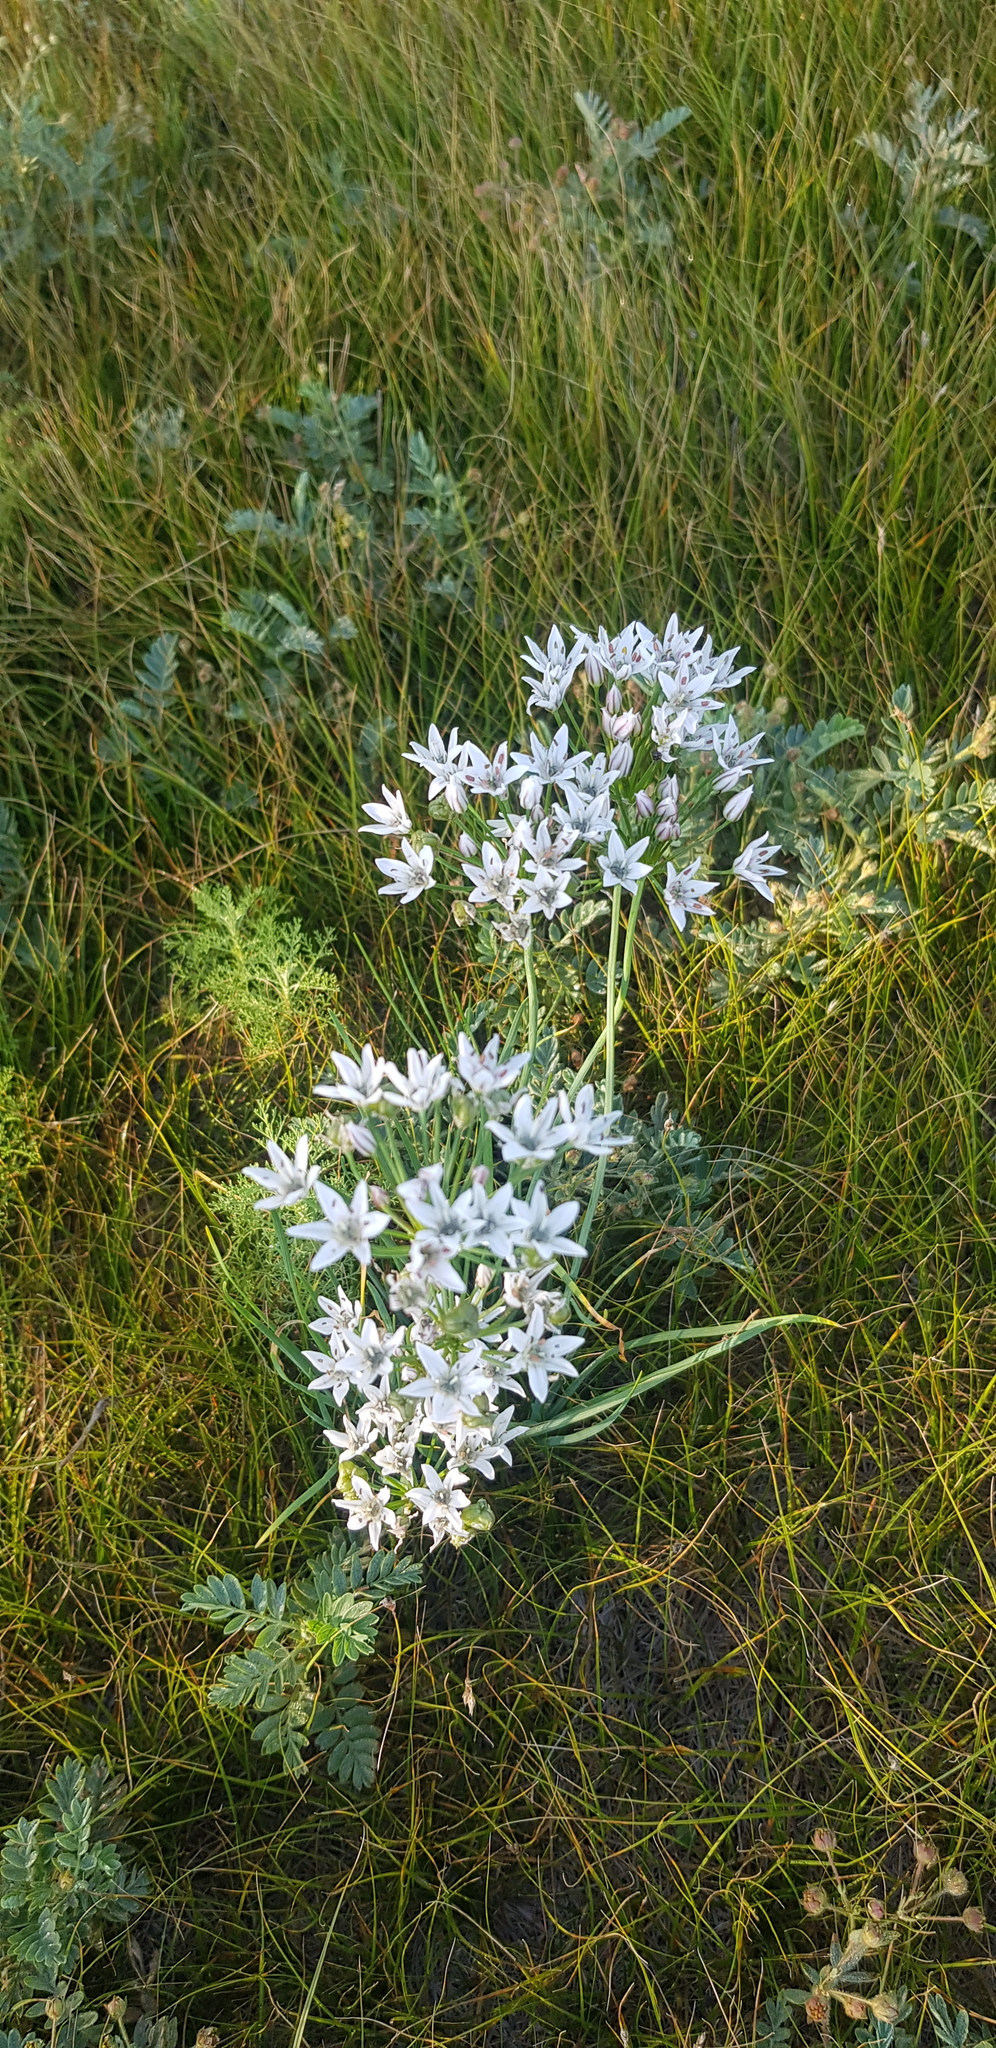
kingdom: Plantae
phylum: Tracheophyta
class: Liliopsida
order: Asparagales
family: Amaryllidaceae
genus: Allium
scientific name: Allium ramosum
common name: Fragrant garlic
